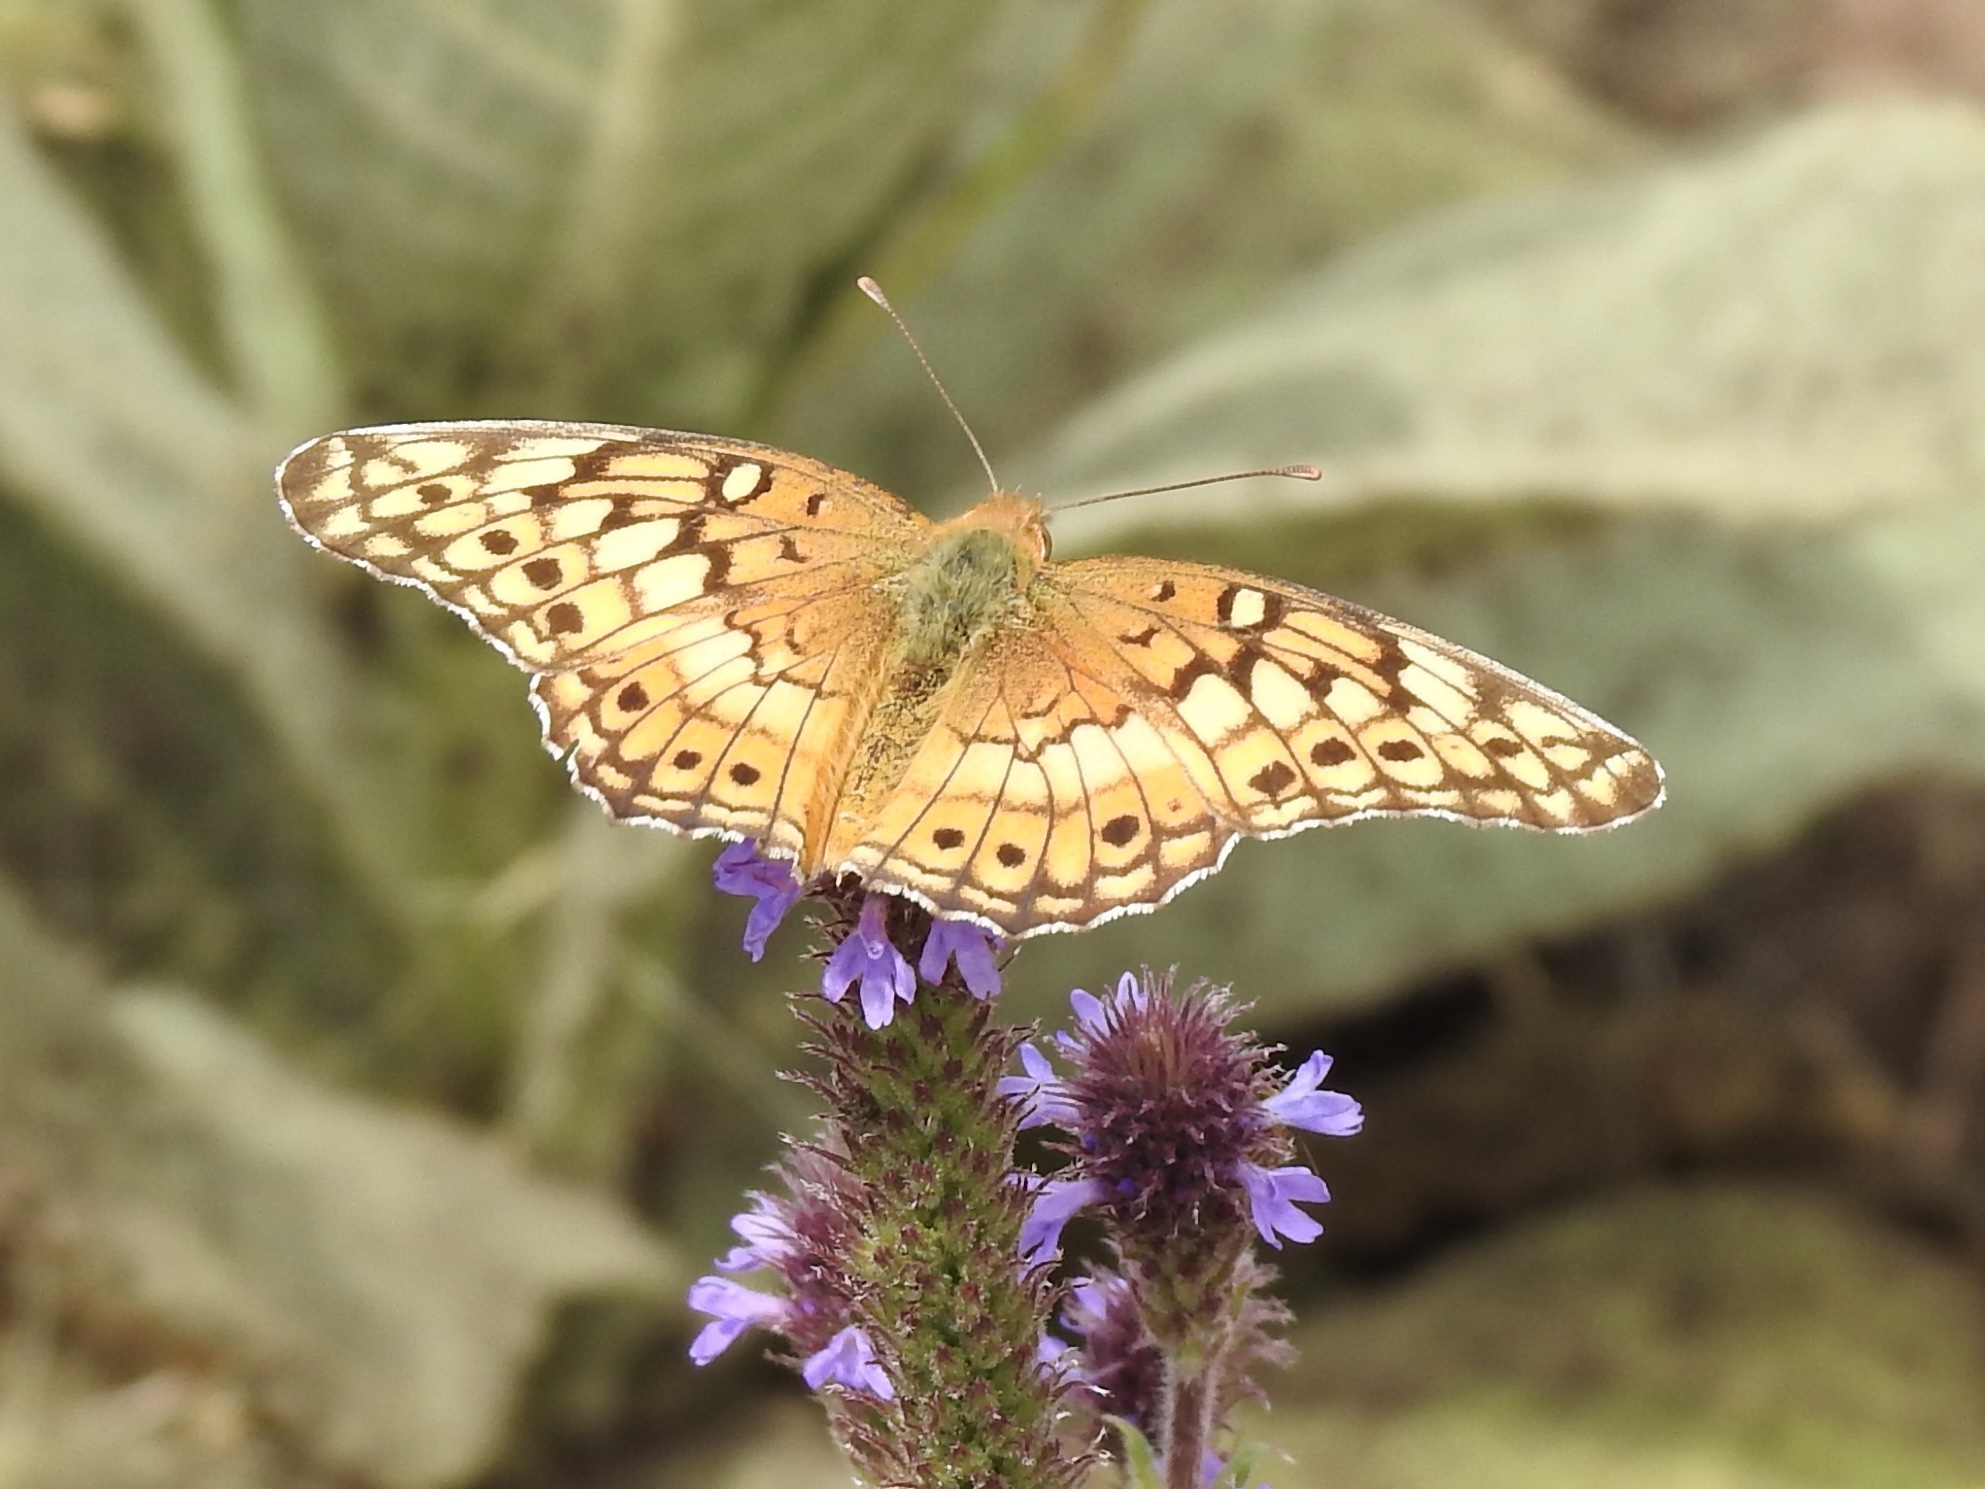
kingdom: Animalia
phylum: Arthropoda
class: Insecta
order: Lepidoptera
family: Nymphalidae
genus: Euptoieta
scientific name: Euptoieta claudia
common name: Variegated fritillary
